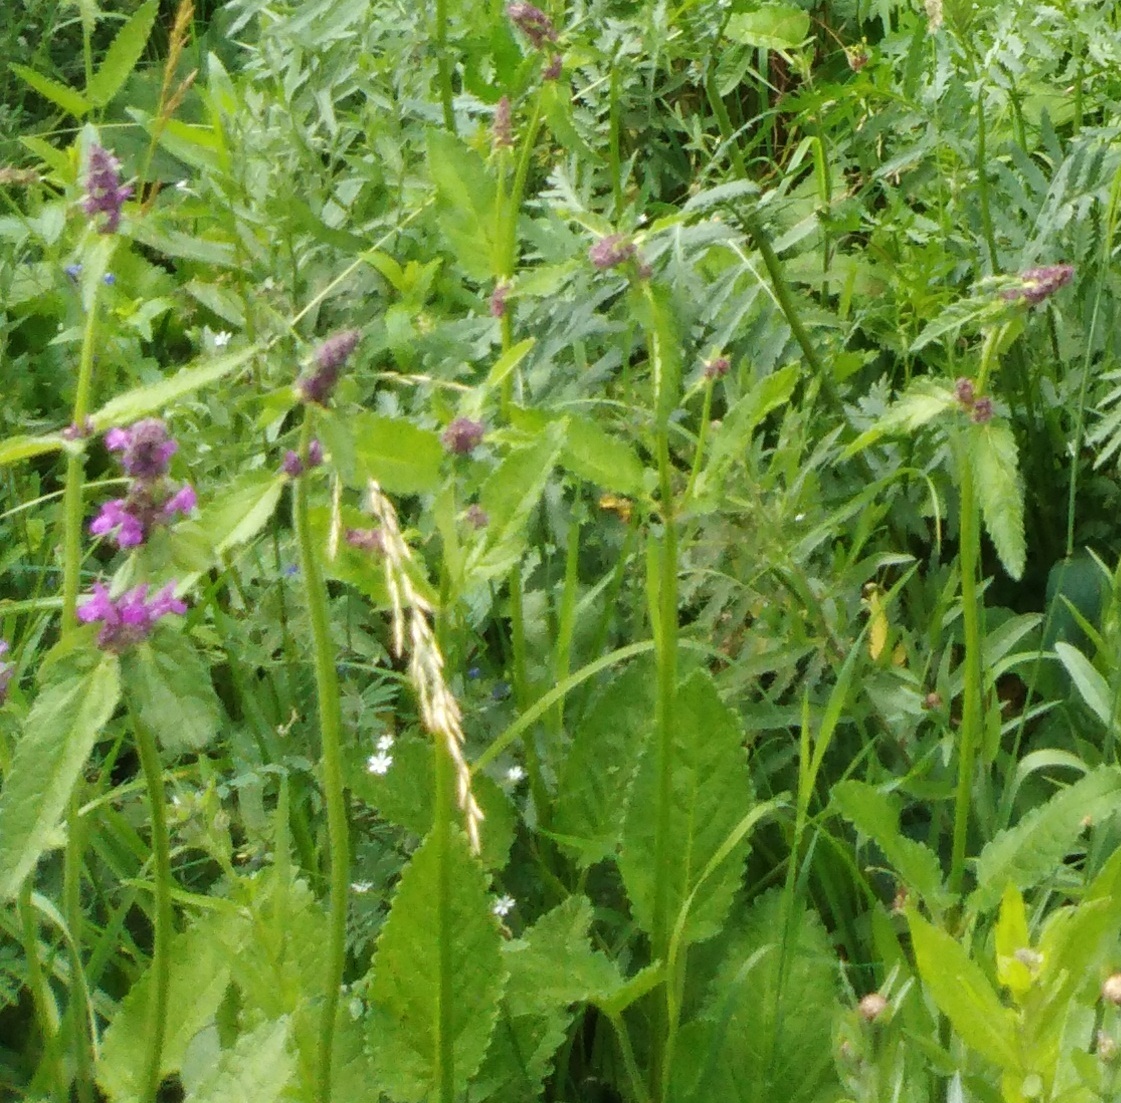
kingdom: Plantae
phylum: Tracheophyta
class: Magnoliopsida
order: Lamiales
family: Lamiaceae
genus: Betonica
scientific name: Betonica officinalis
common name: Bishop's-wort
